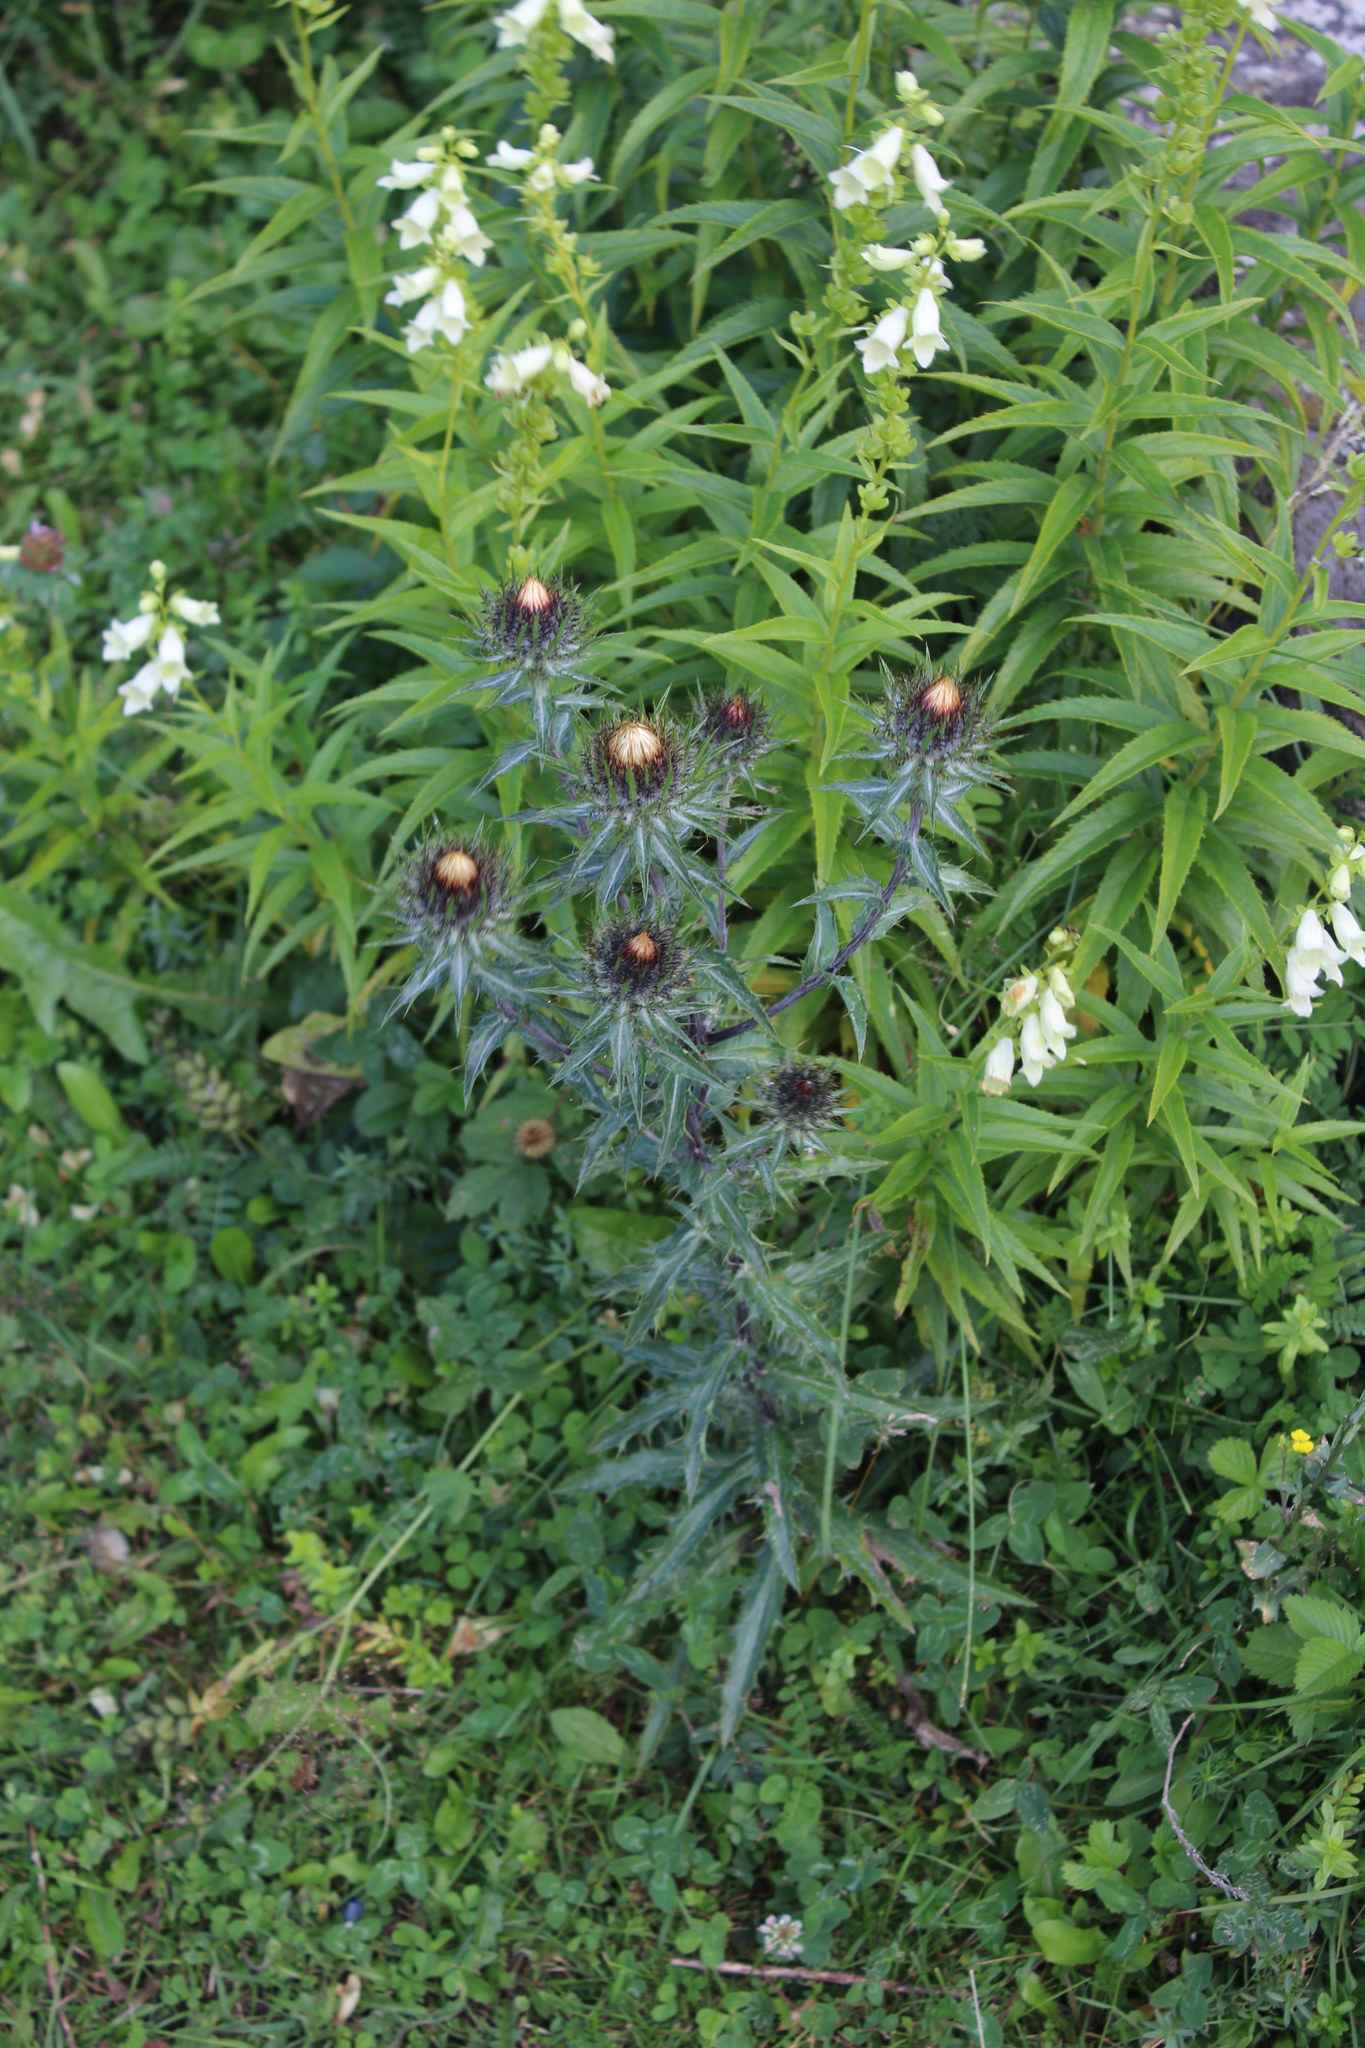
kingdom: Plantae
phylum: Tracheophyta
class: Magnoliopsida
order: Asterales
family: Asteraceae
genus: Carlina
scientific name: Carlina biebersteinii
